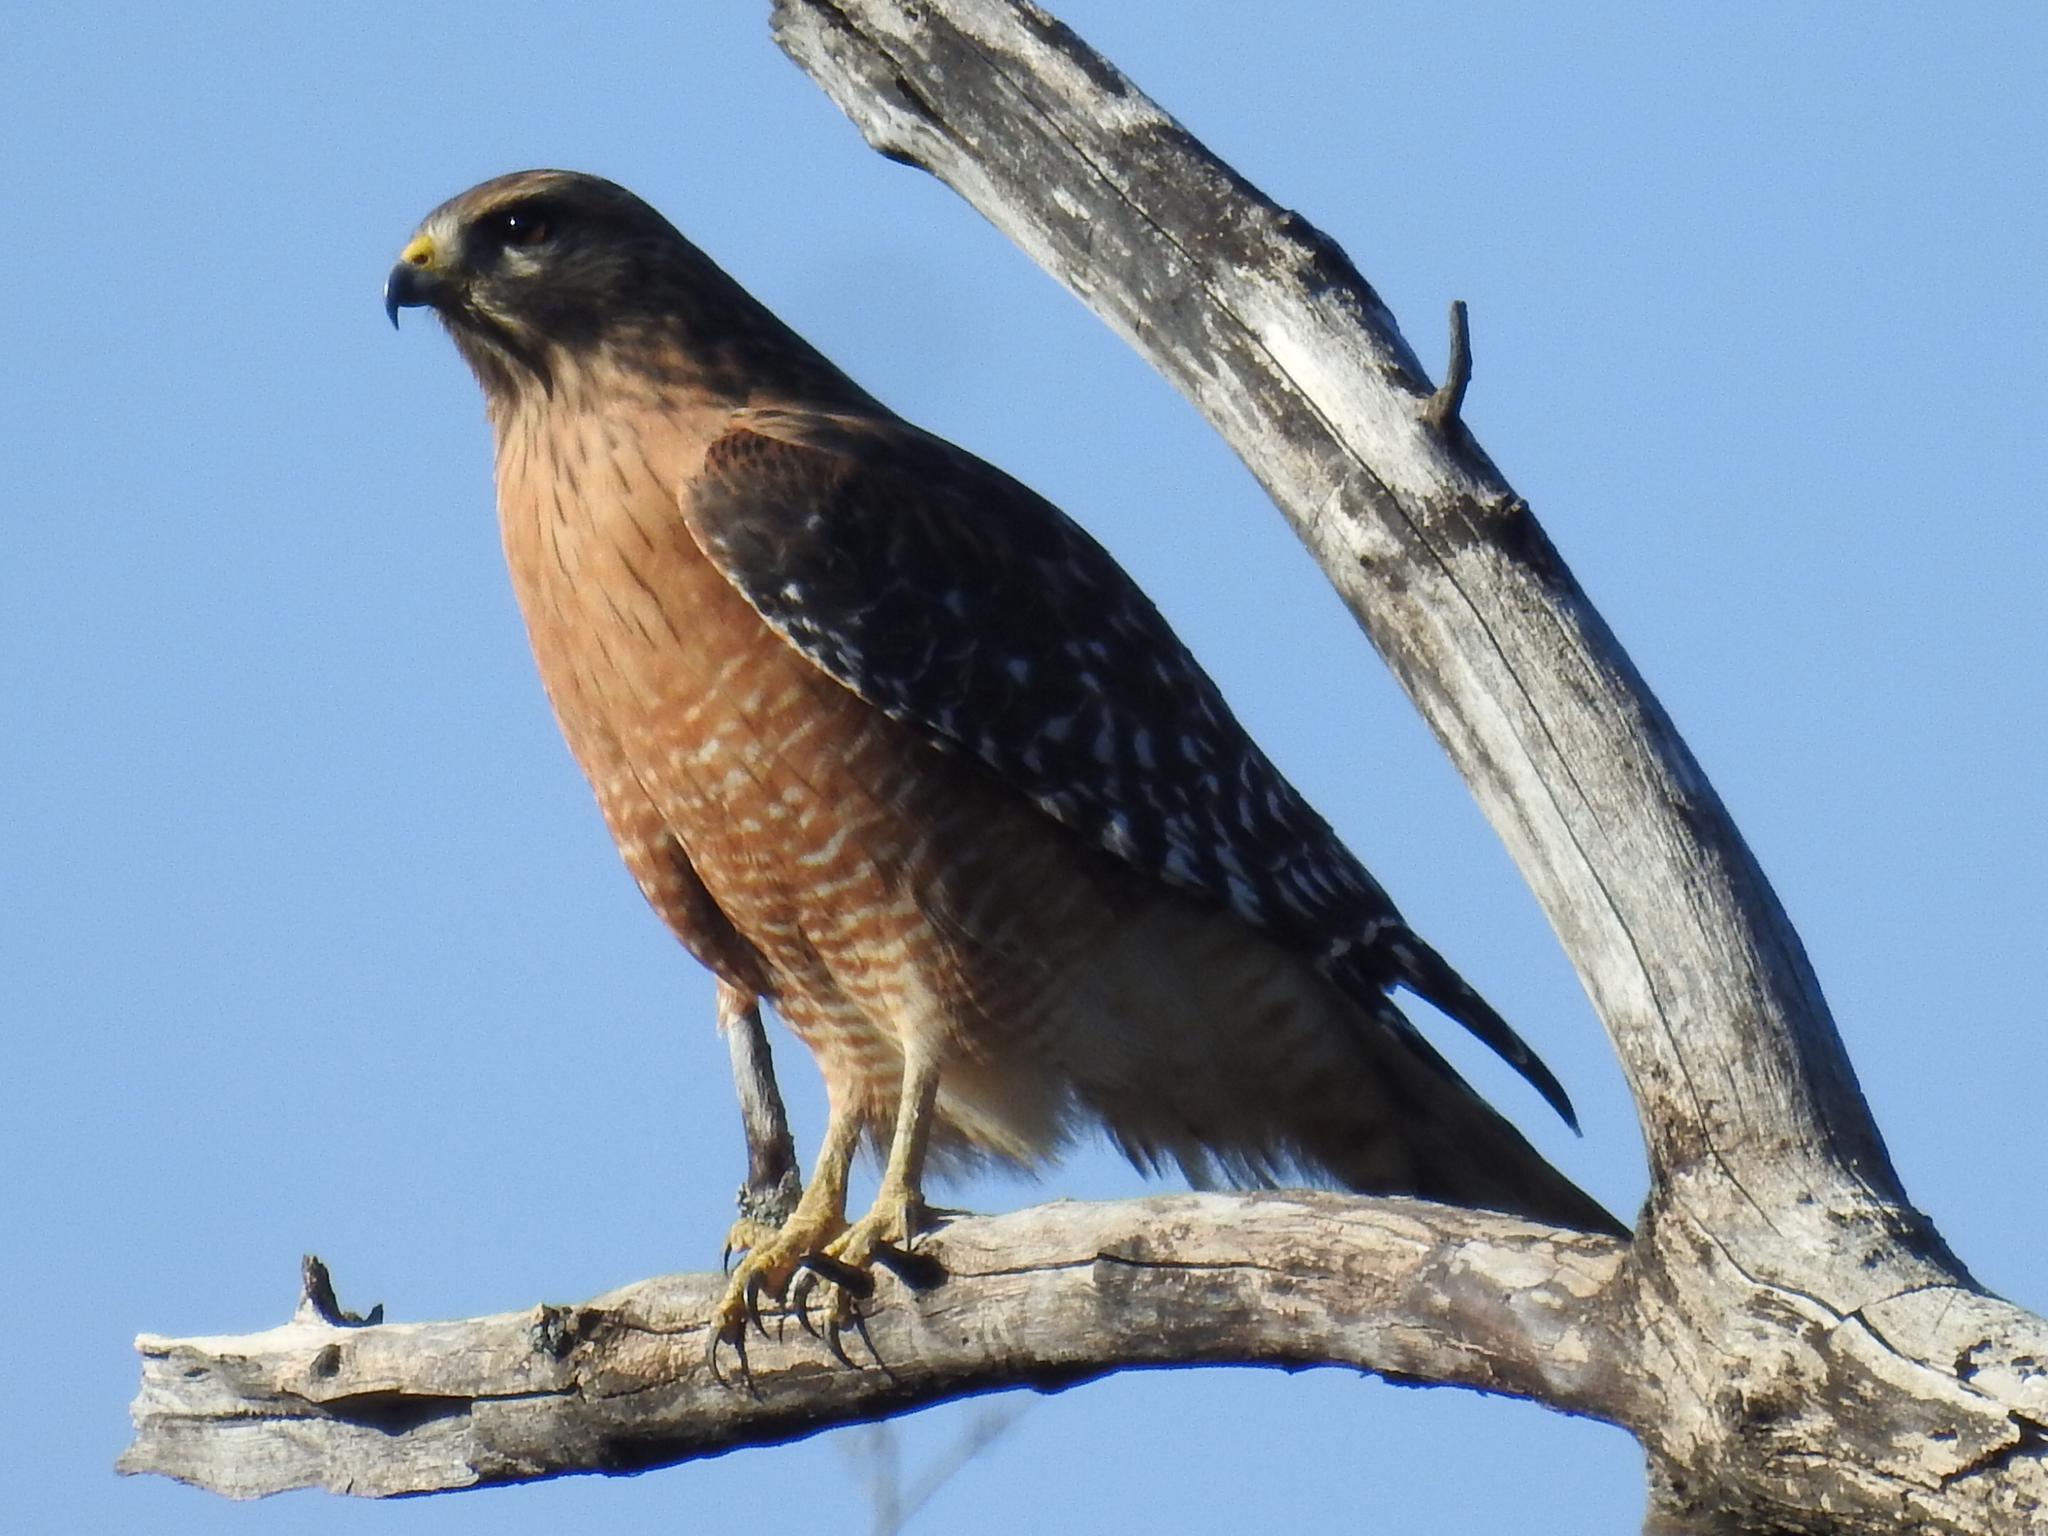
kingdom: Animalia
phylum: Chordata
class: Aves
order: Accipitriformes
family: Accipitridae
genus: Buteo
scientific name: Buteo lineatus
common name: Red-shouldered hawk
